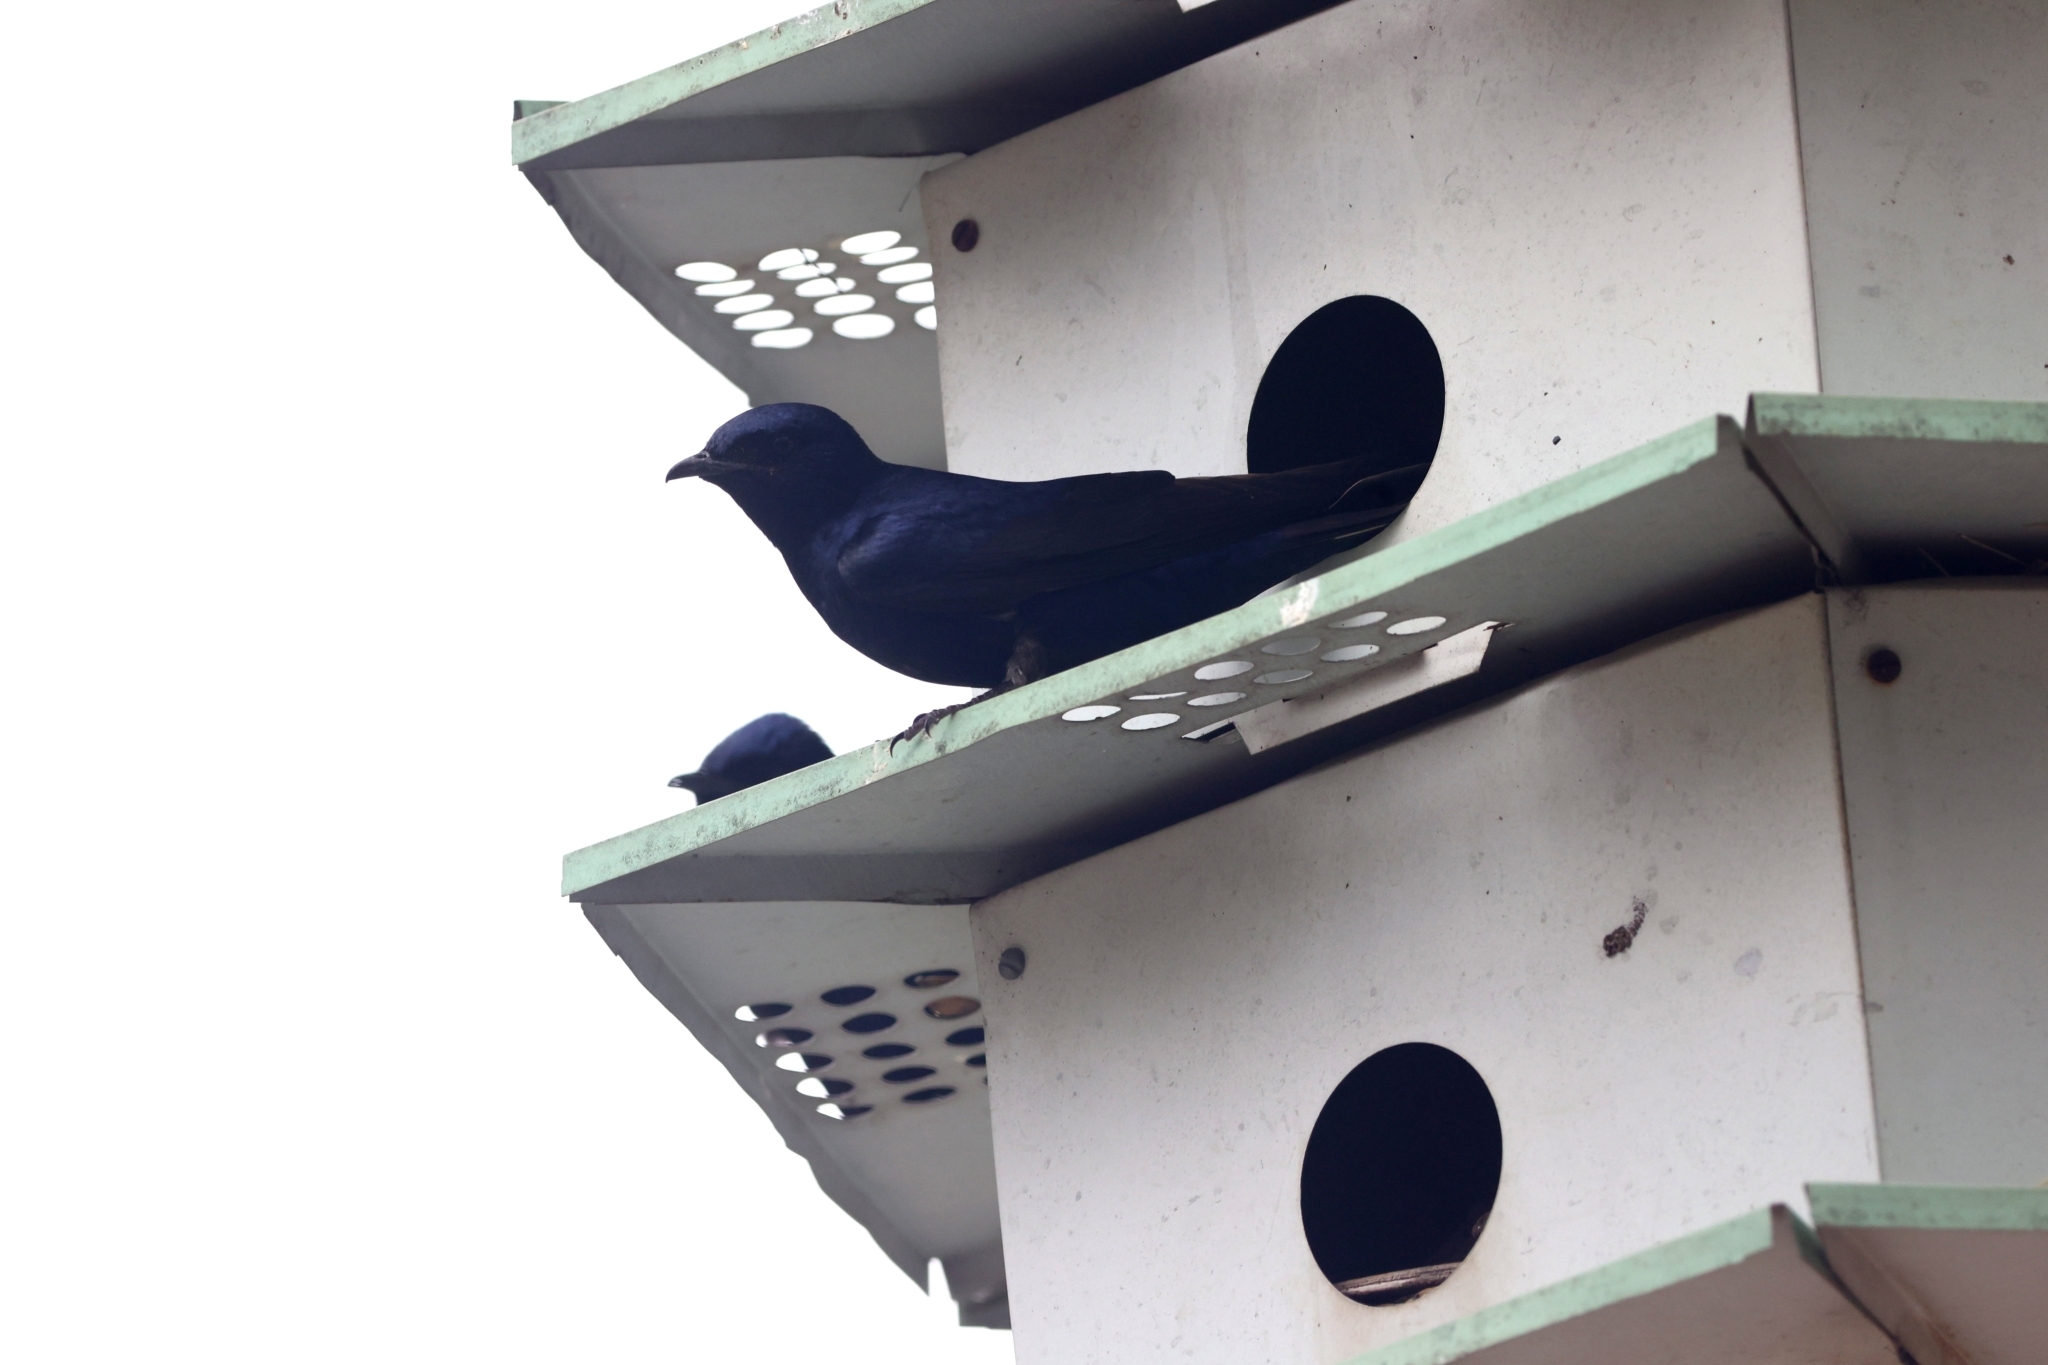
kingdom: Animalia
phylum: Chordata
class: Aves
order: Passeriformes
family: Hirundinidae
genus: Progne
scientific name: Progne subis
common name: Purple martin
